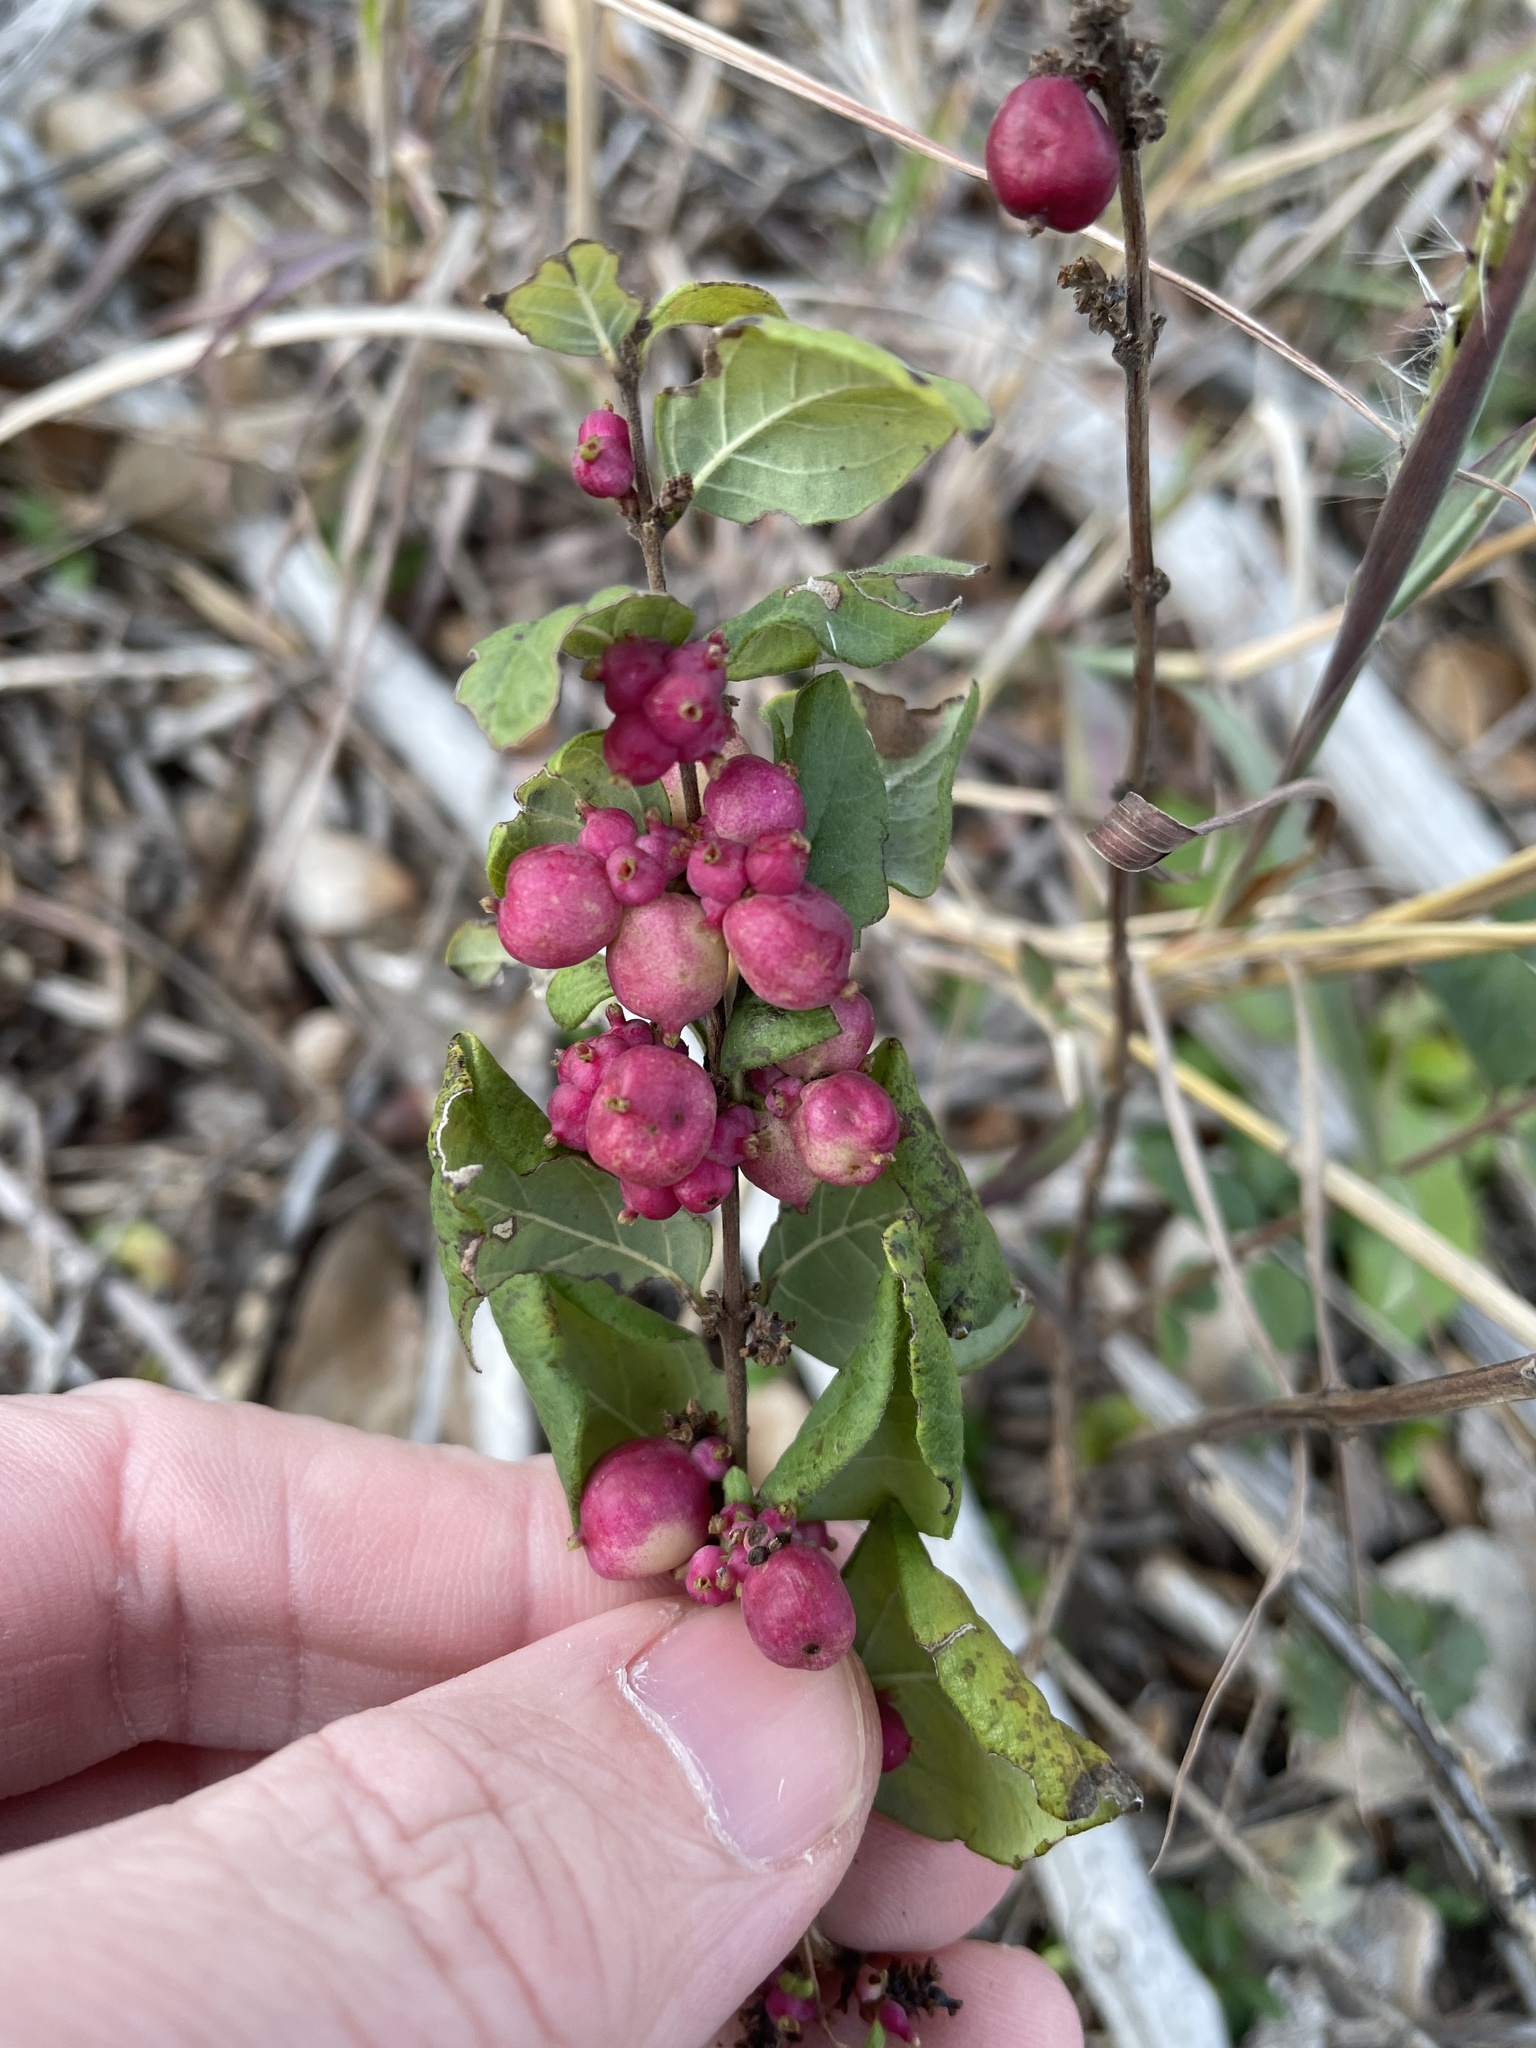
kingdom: Plantae
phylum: Tracheophyta
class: Magnoliopsida
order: Dipsacales
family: Caprifoliaceae
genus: Symphoricarpos
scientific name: Symphoricarpos orbiculatus
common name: Coralberry
